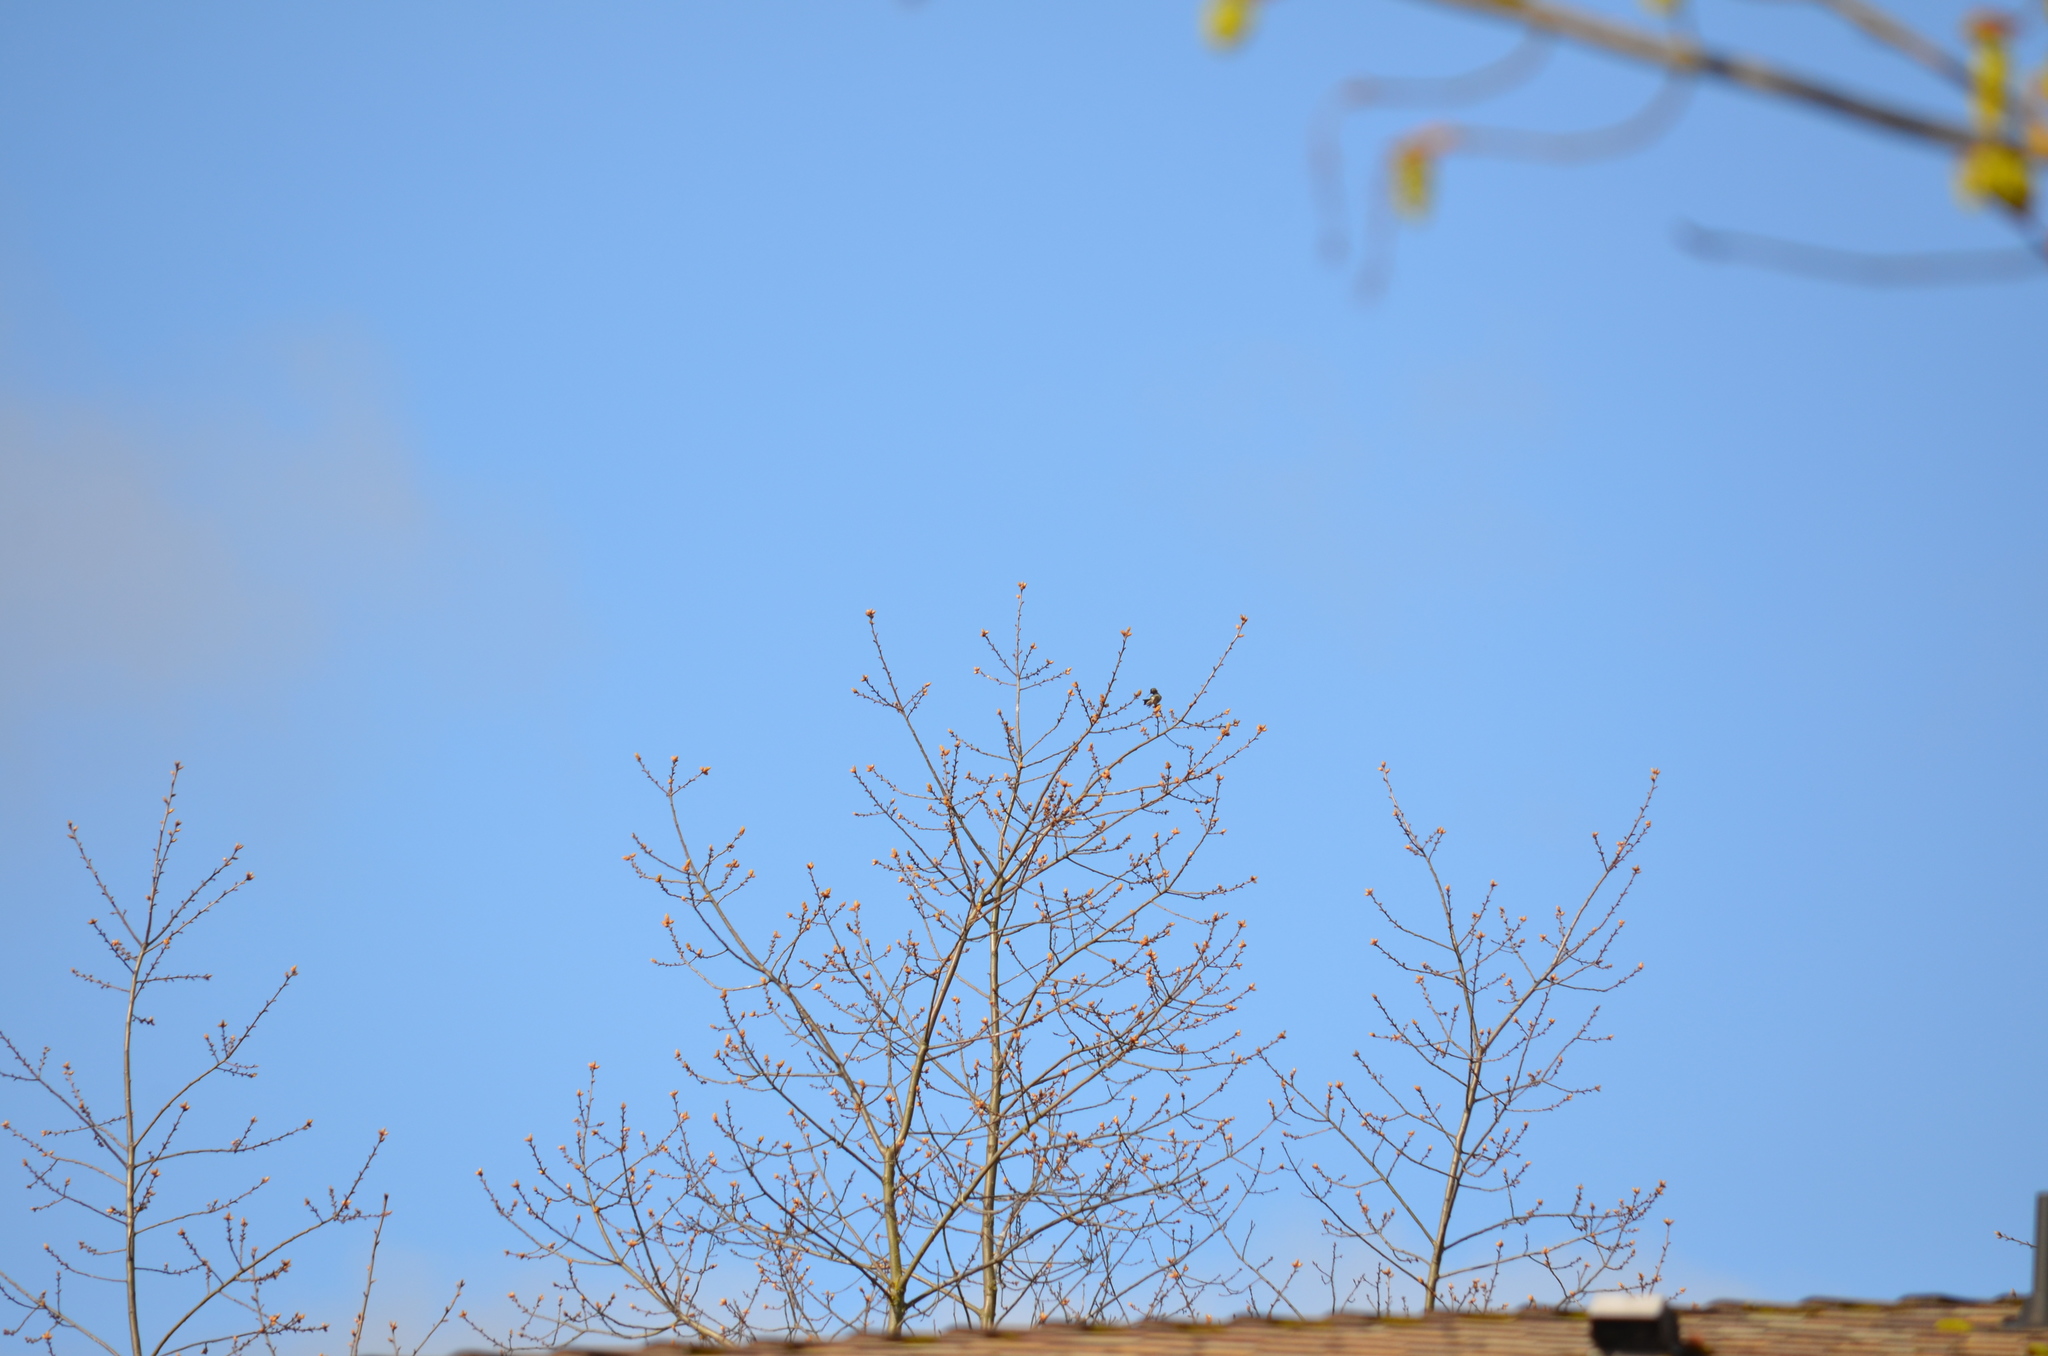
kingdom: Animalia
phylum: Chordata
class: Aves
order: Apodiformes
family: Trochilidae
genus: Calypte
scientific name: Calypte anna
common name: Anna's hummingbird
